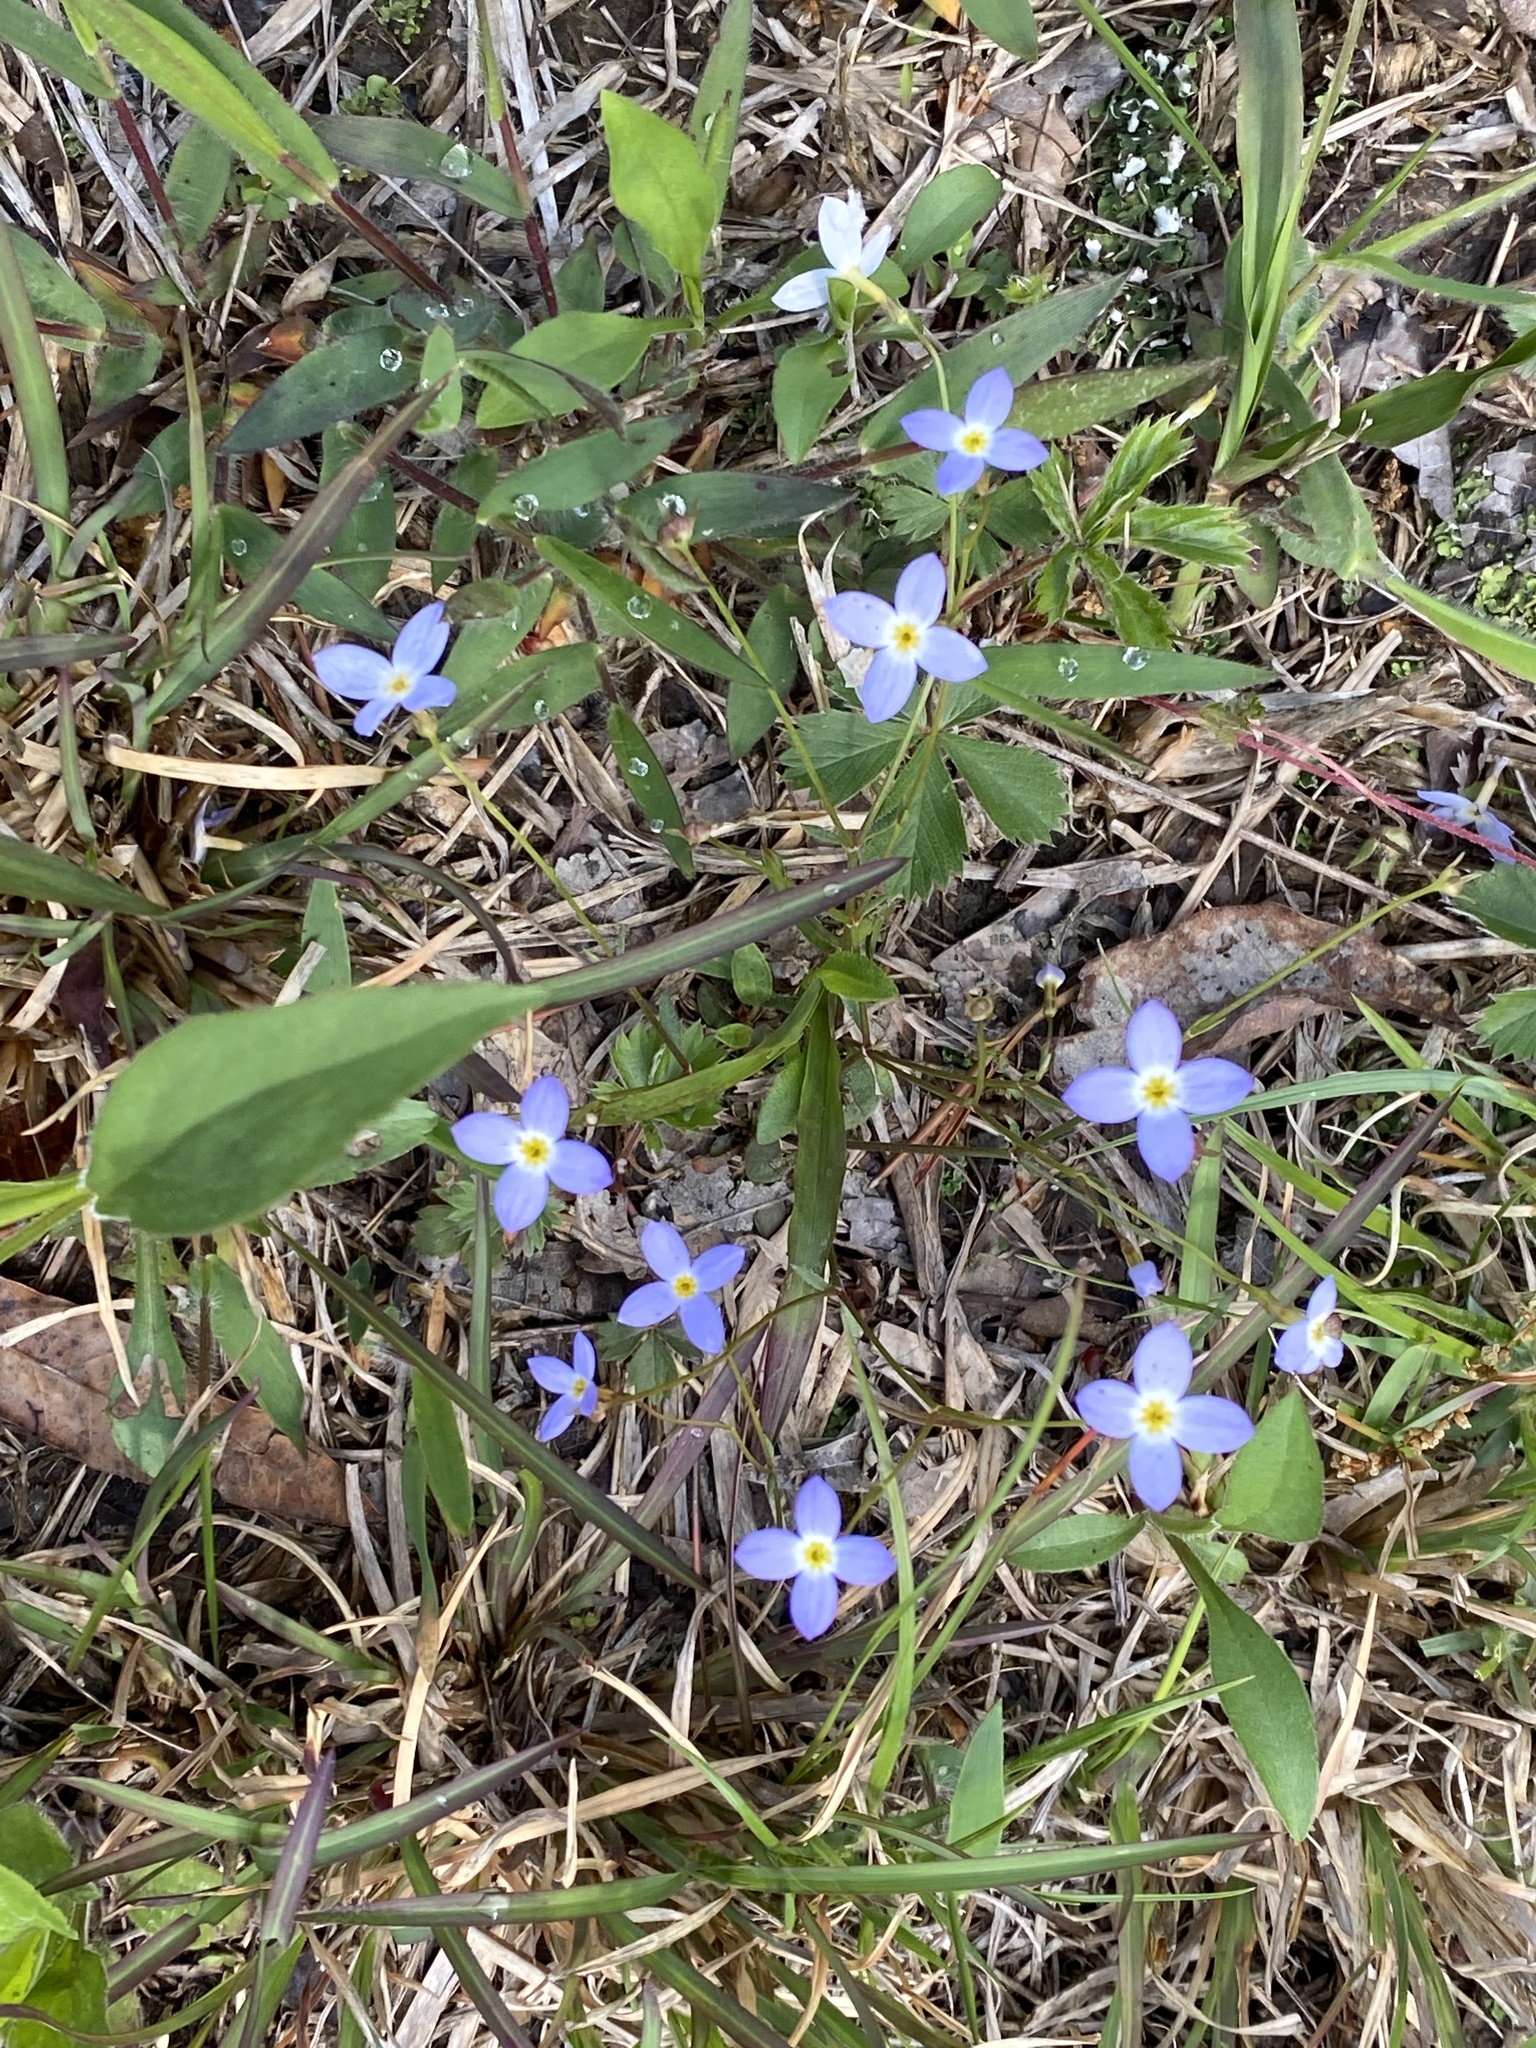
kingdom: Plantae
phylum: Tracheophyta
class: Magnoliopsida
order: Gentianales
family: Rubiaceae
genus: Houstonia
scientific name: Houstonia caerulea
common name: Bluets
